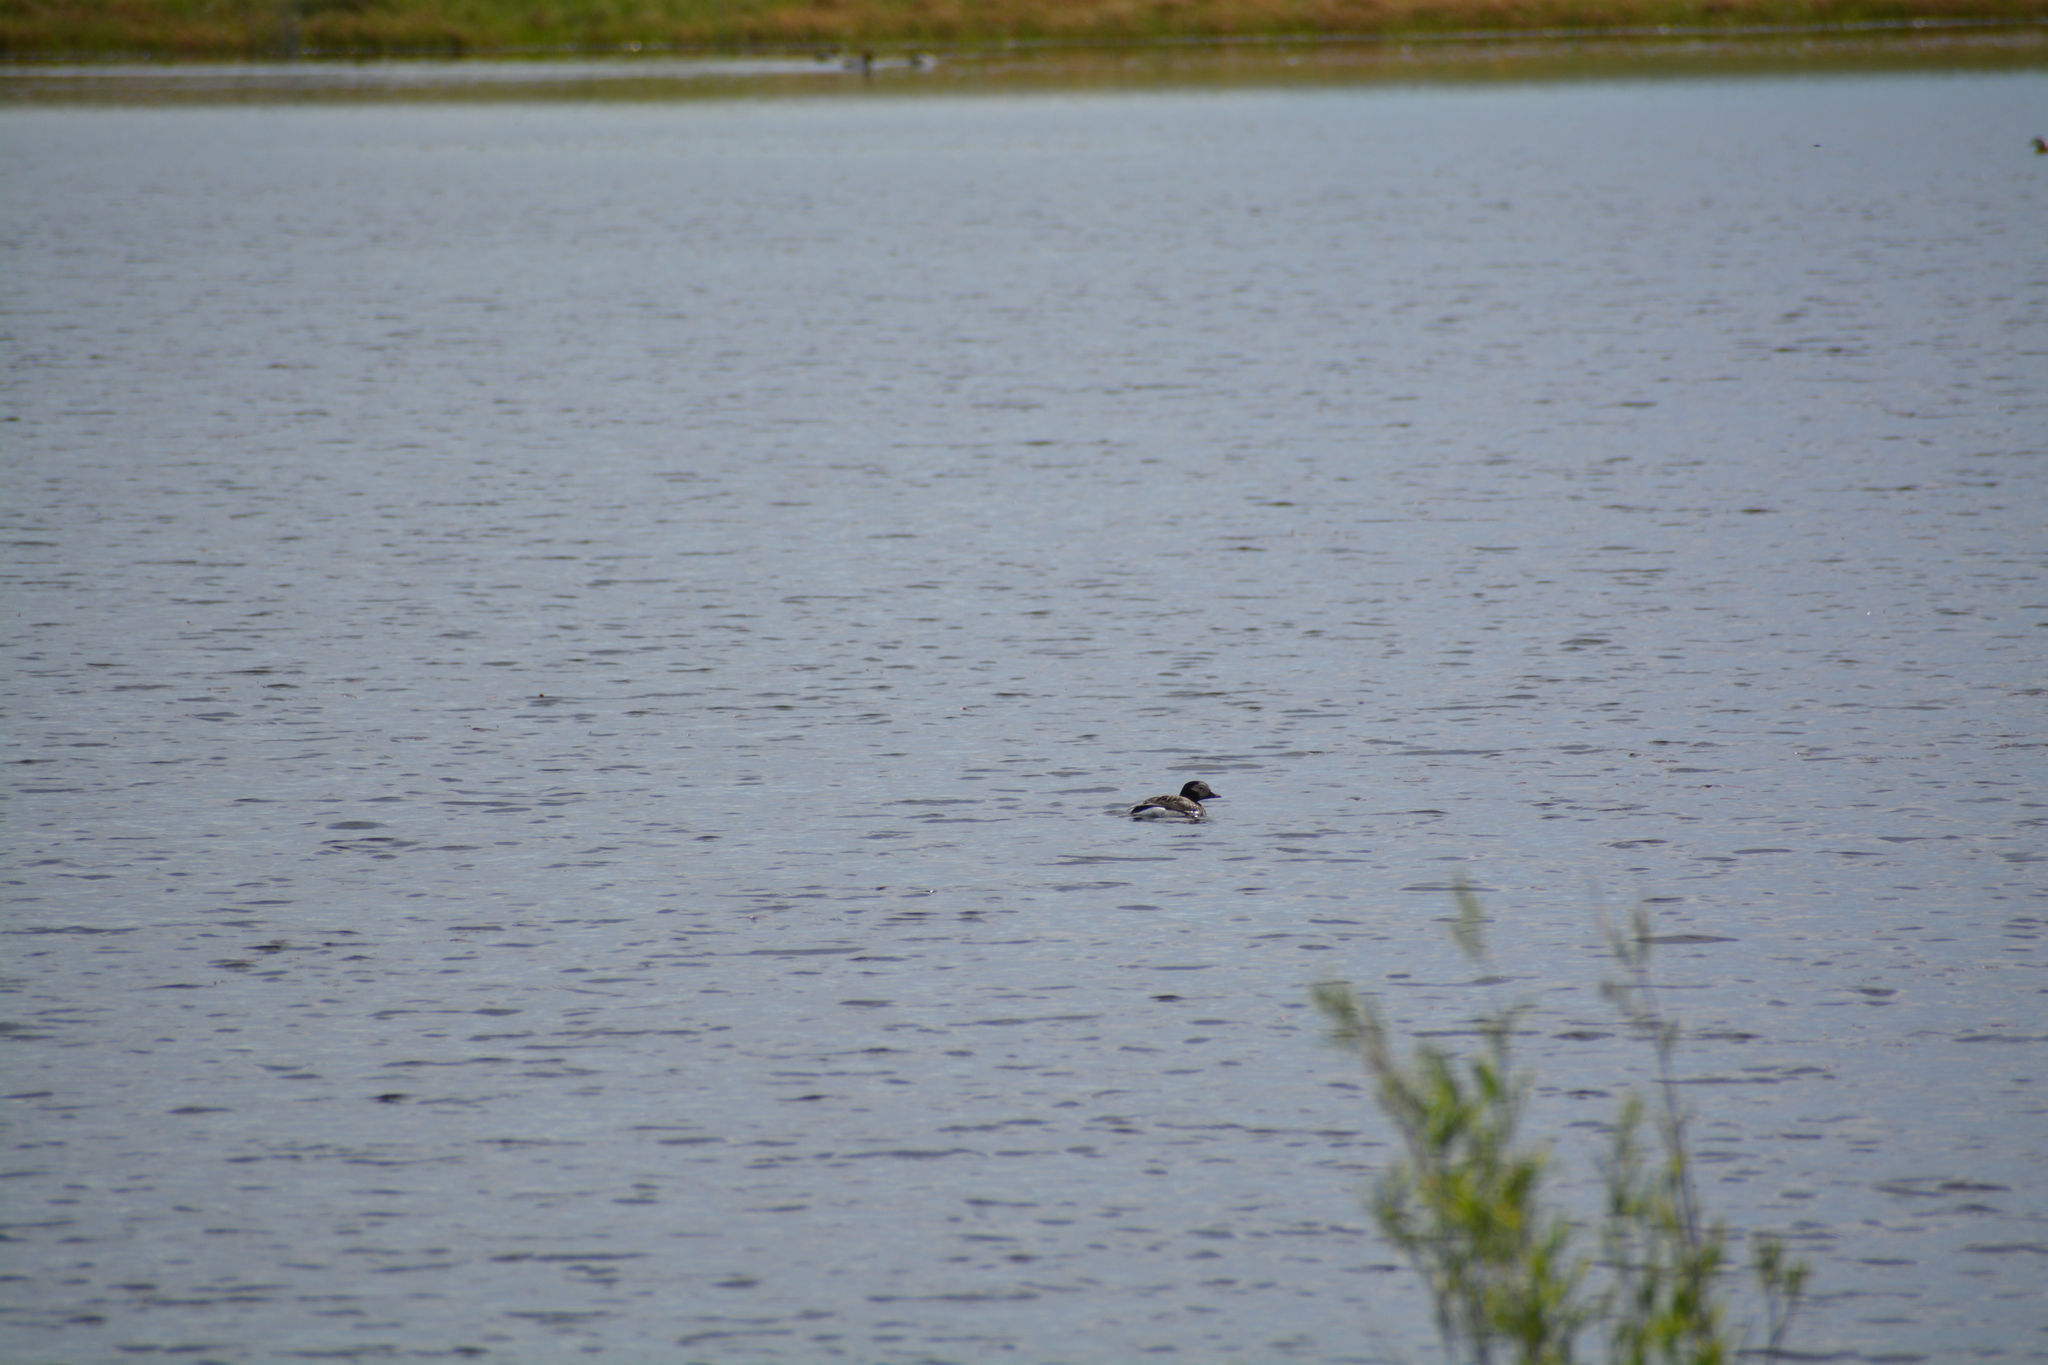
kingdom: Animalia
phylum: Chordata
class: Aves
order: Anseriformes
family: Anatidae
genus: Clangula
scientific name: Clangula hyemalis
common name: Long-tailed duck
